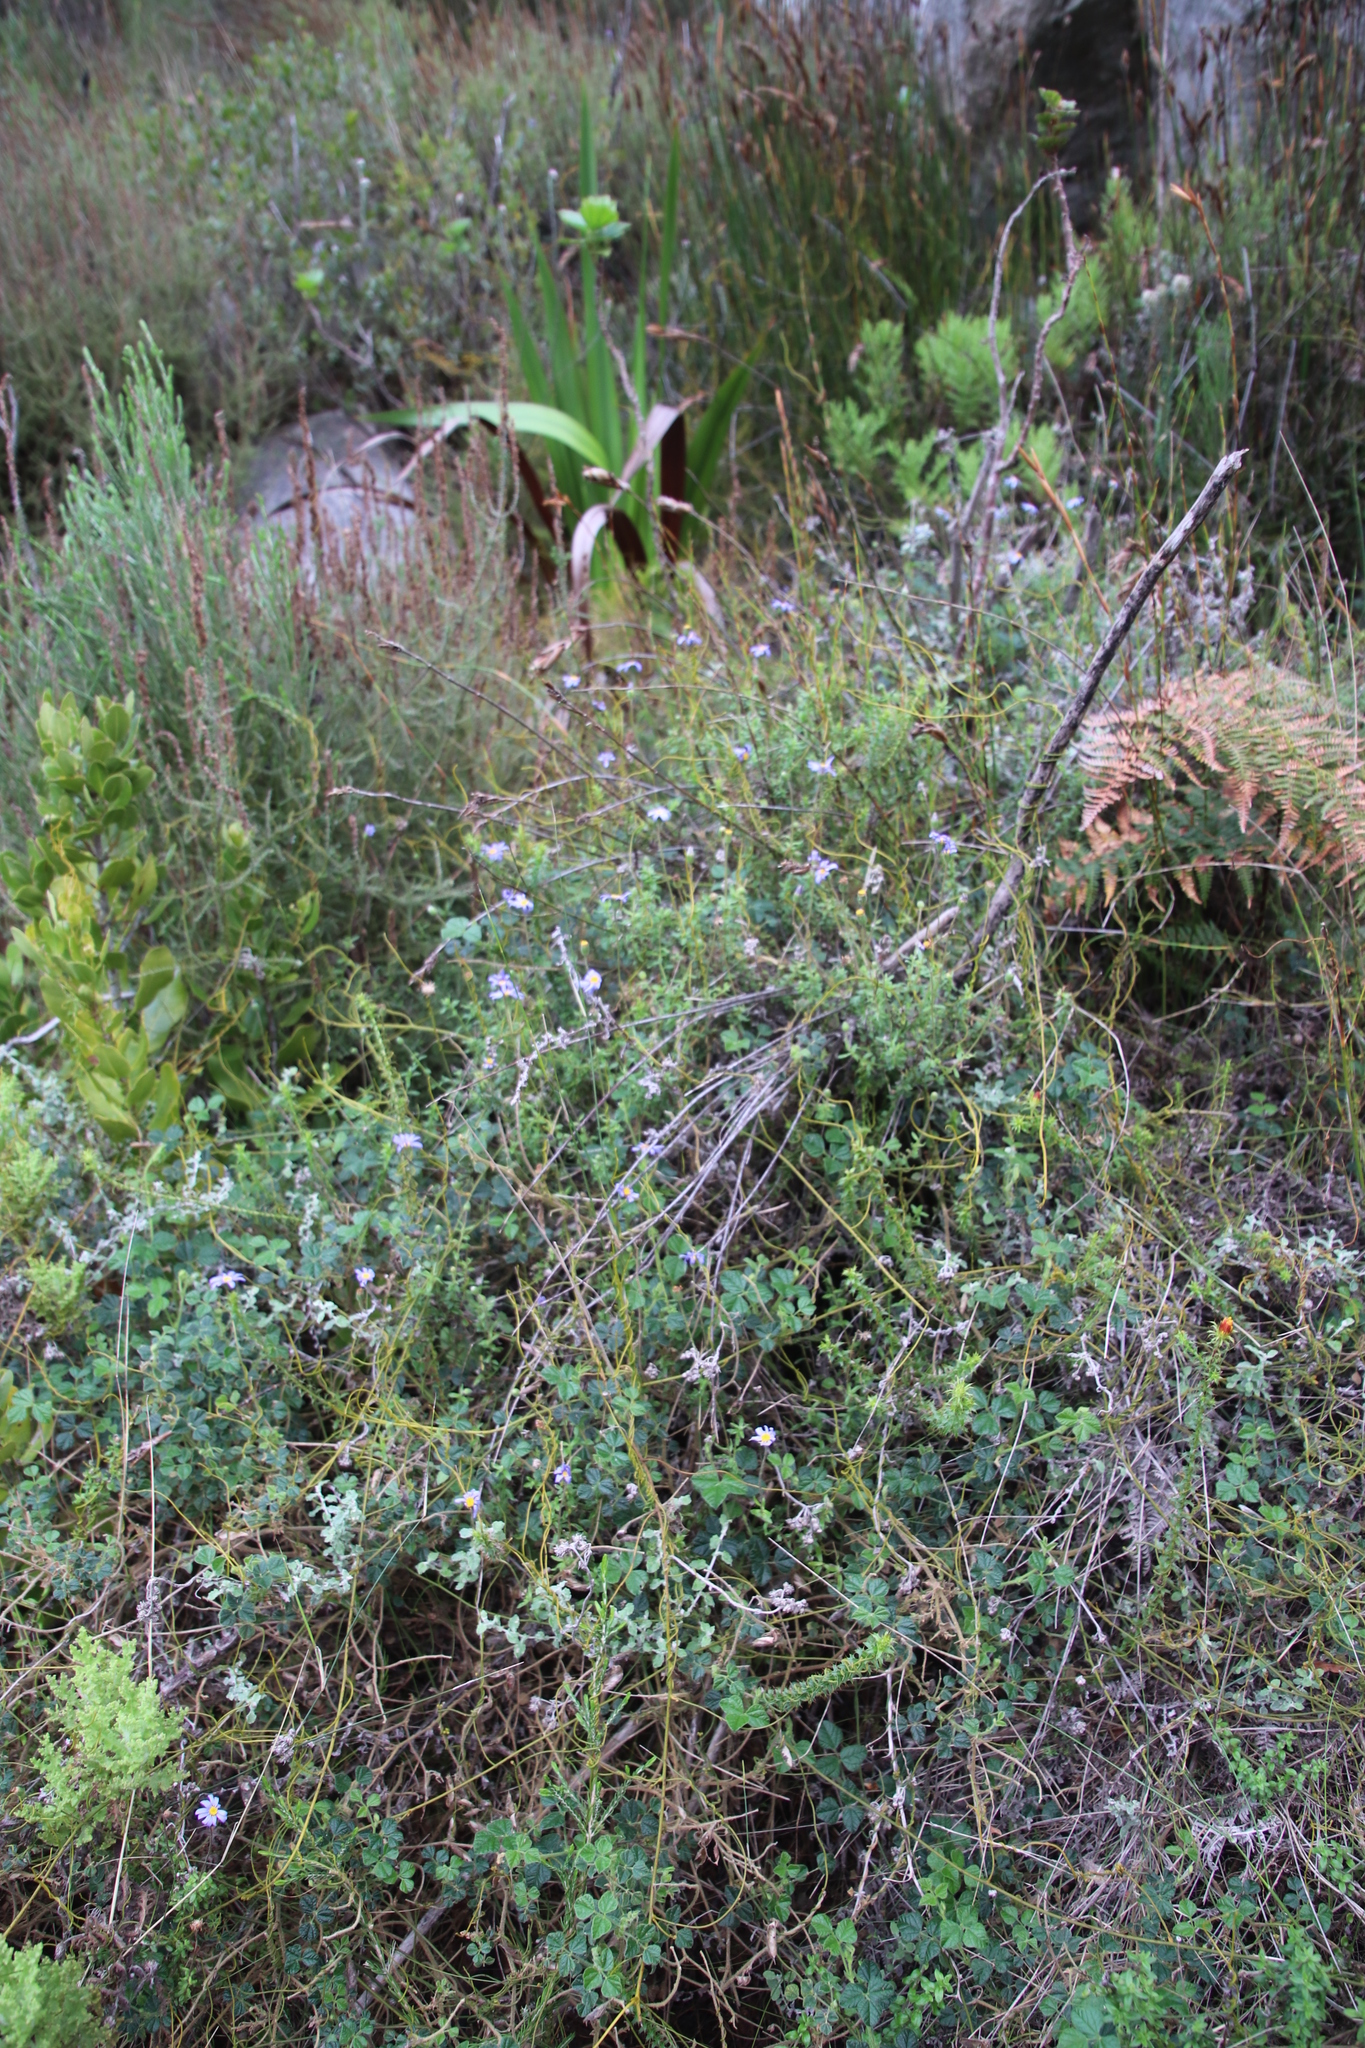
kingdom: Plantae
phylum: Tracheophyta
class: Magnoliopsida
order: Asterales
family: Asteraceae
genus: Felicia
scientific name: Felicia aethiopica
